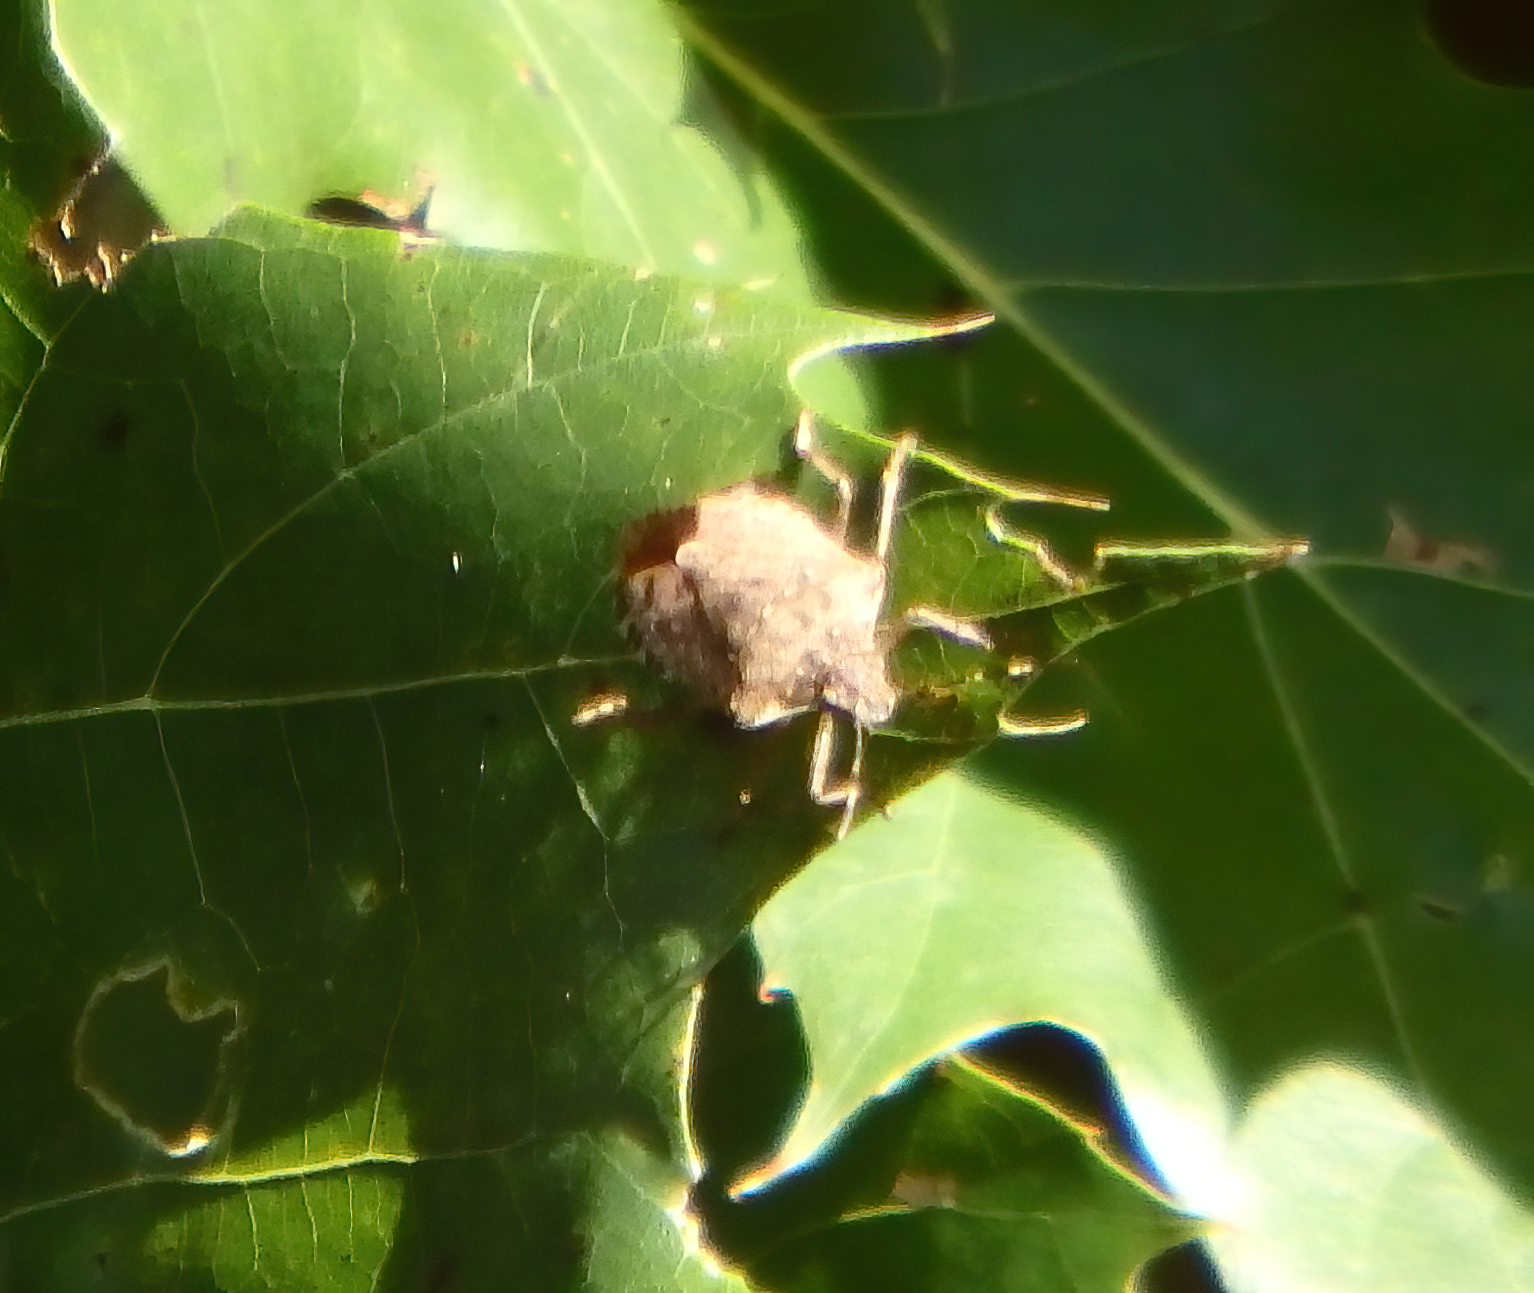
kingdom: Animalia
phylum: Arthropoda
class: Insecta
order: Hemiptera
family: Pentatomidae
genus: Halyomorpha
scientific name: Halyomorpha halys
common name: Brown marmorated stink bug
